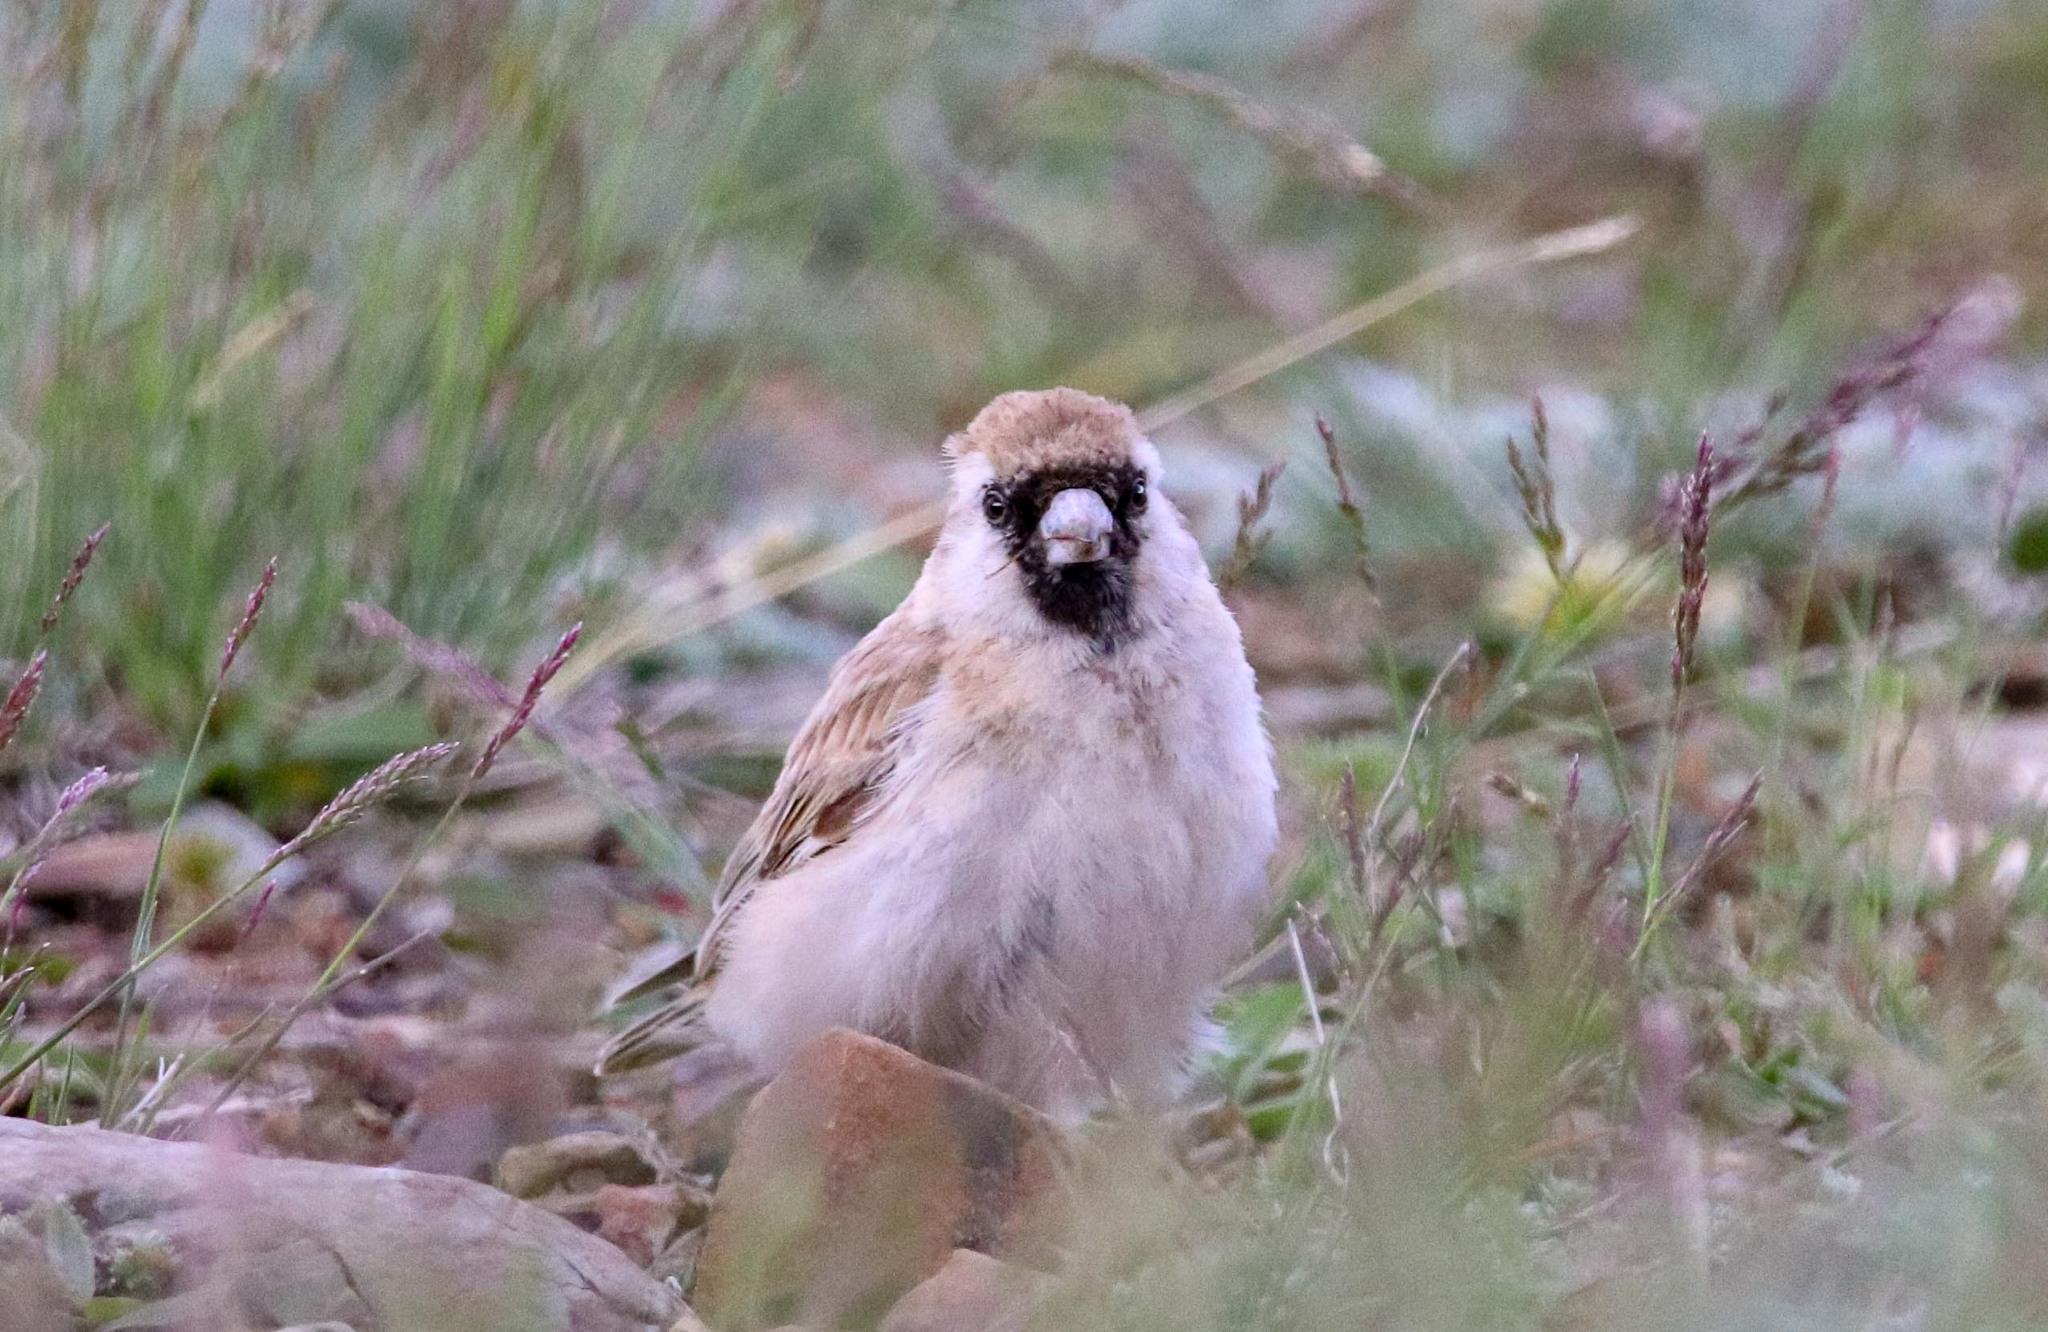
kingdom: Animalia
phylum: Chordata
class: Aves
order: Passeriformes
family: Passeridae
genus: Pyrgilauda
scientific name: Pyrgilauda davidiana
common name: Pere david's snowfinch
